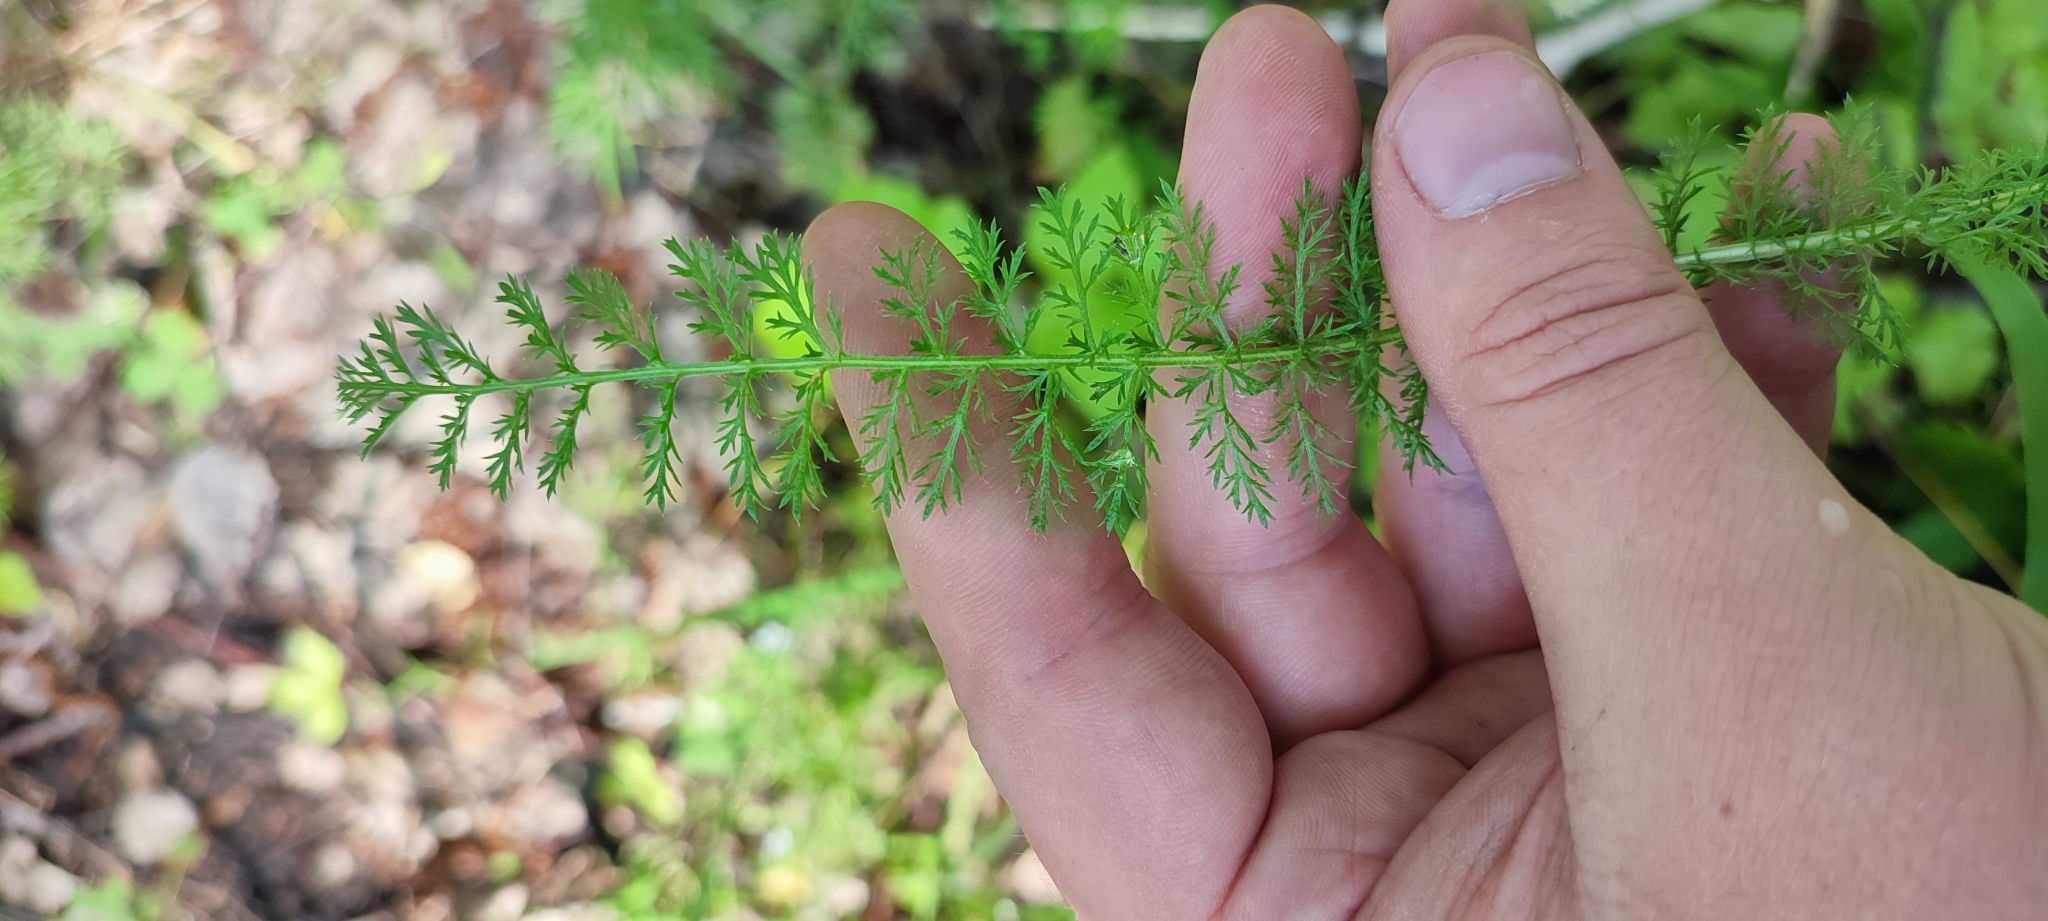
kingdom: Plantae
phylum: Tracheophyta
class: Magnoliopsida
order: Asterales
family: Asteraceae
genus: Achillea
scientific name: Achillea asiatica
